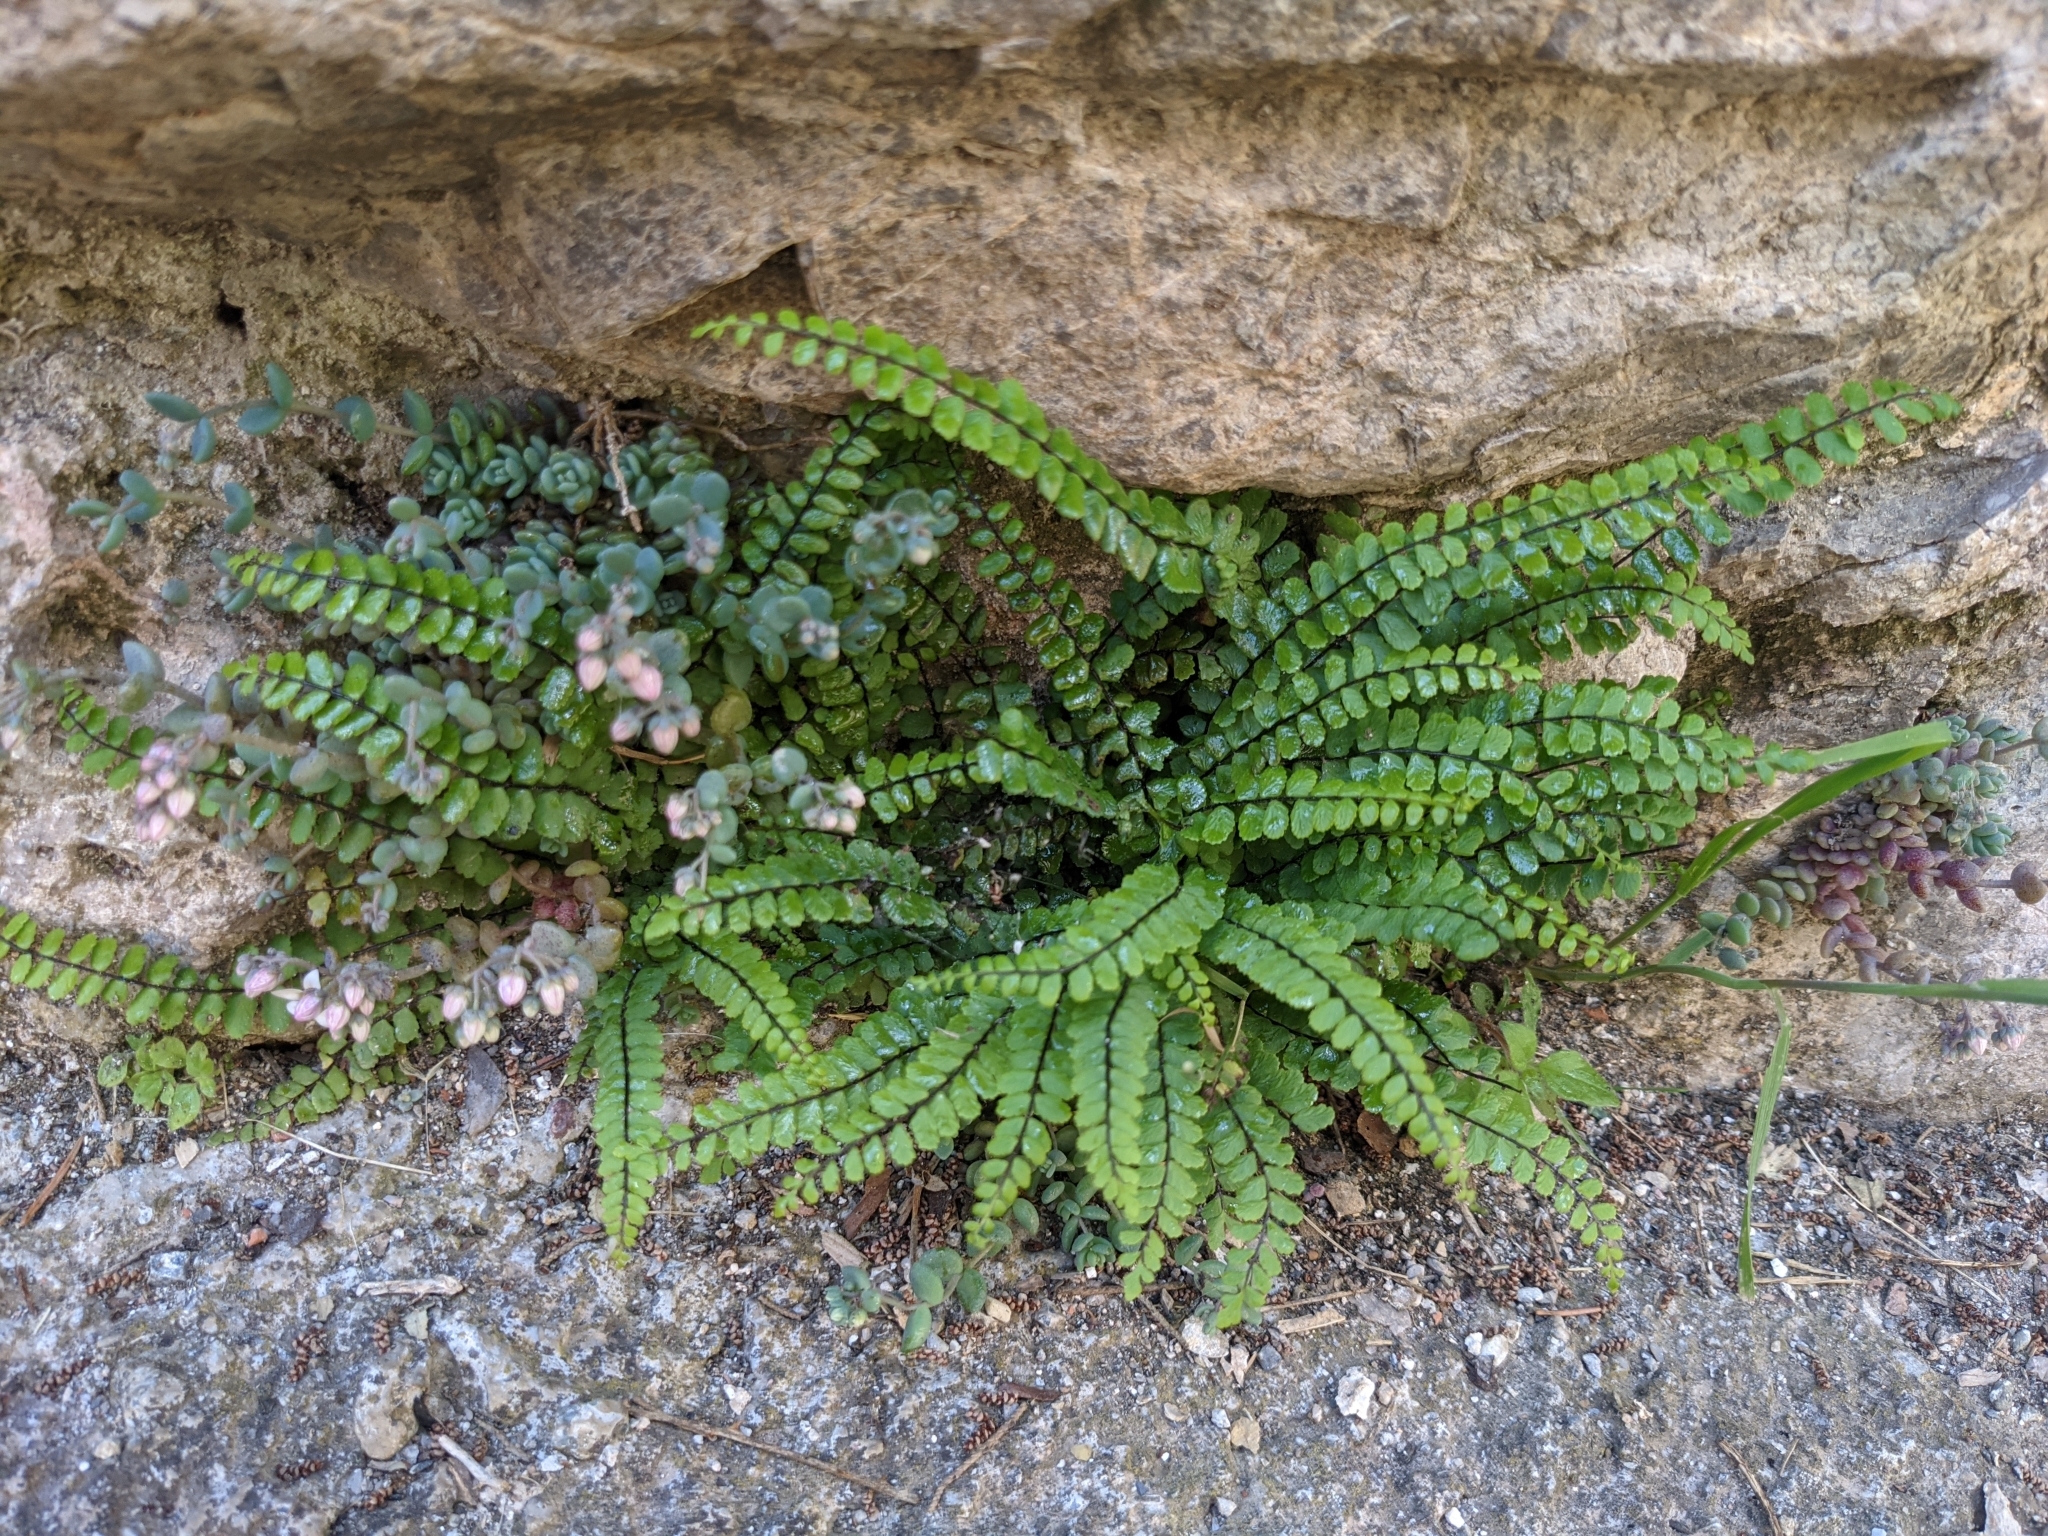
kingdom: Plantae
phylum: Tracheophyta
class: Polypodiopsida
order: Polypodiales
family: Aspleniaceae
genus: Asplenium
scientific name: Asplenium trichomanes
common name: Maidenhair spleenwort
